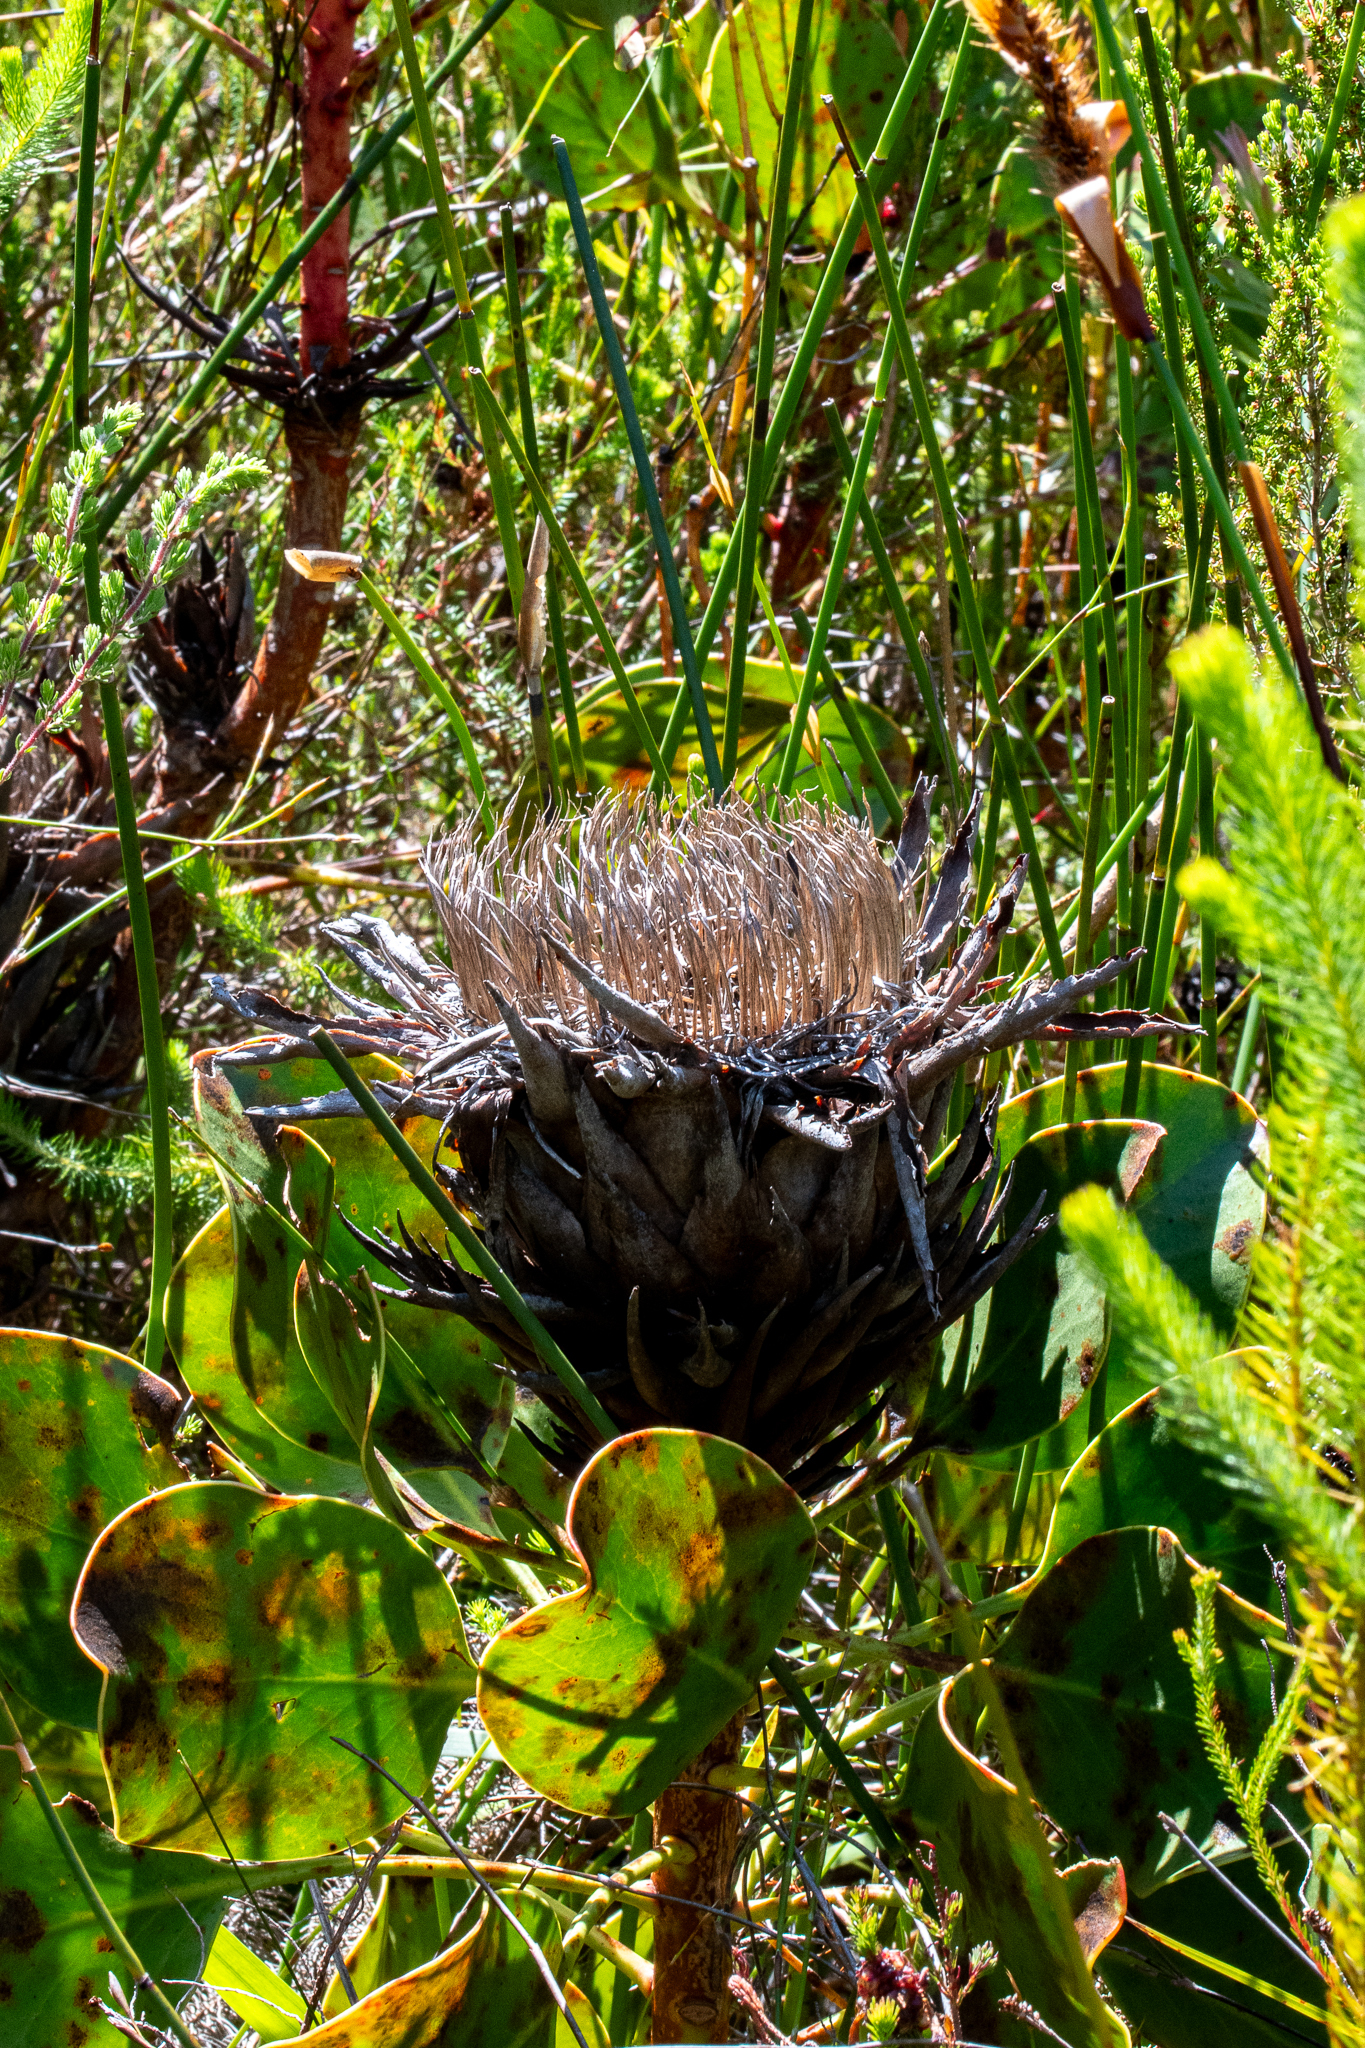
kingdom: Plantae
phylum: Tracheophyta
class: Magnoliopsida
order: Proteales
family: Proteaceae
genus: Protea
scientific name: Protea cynaroides
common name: King protea
